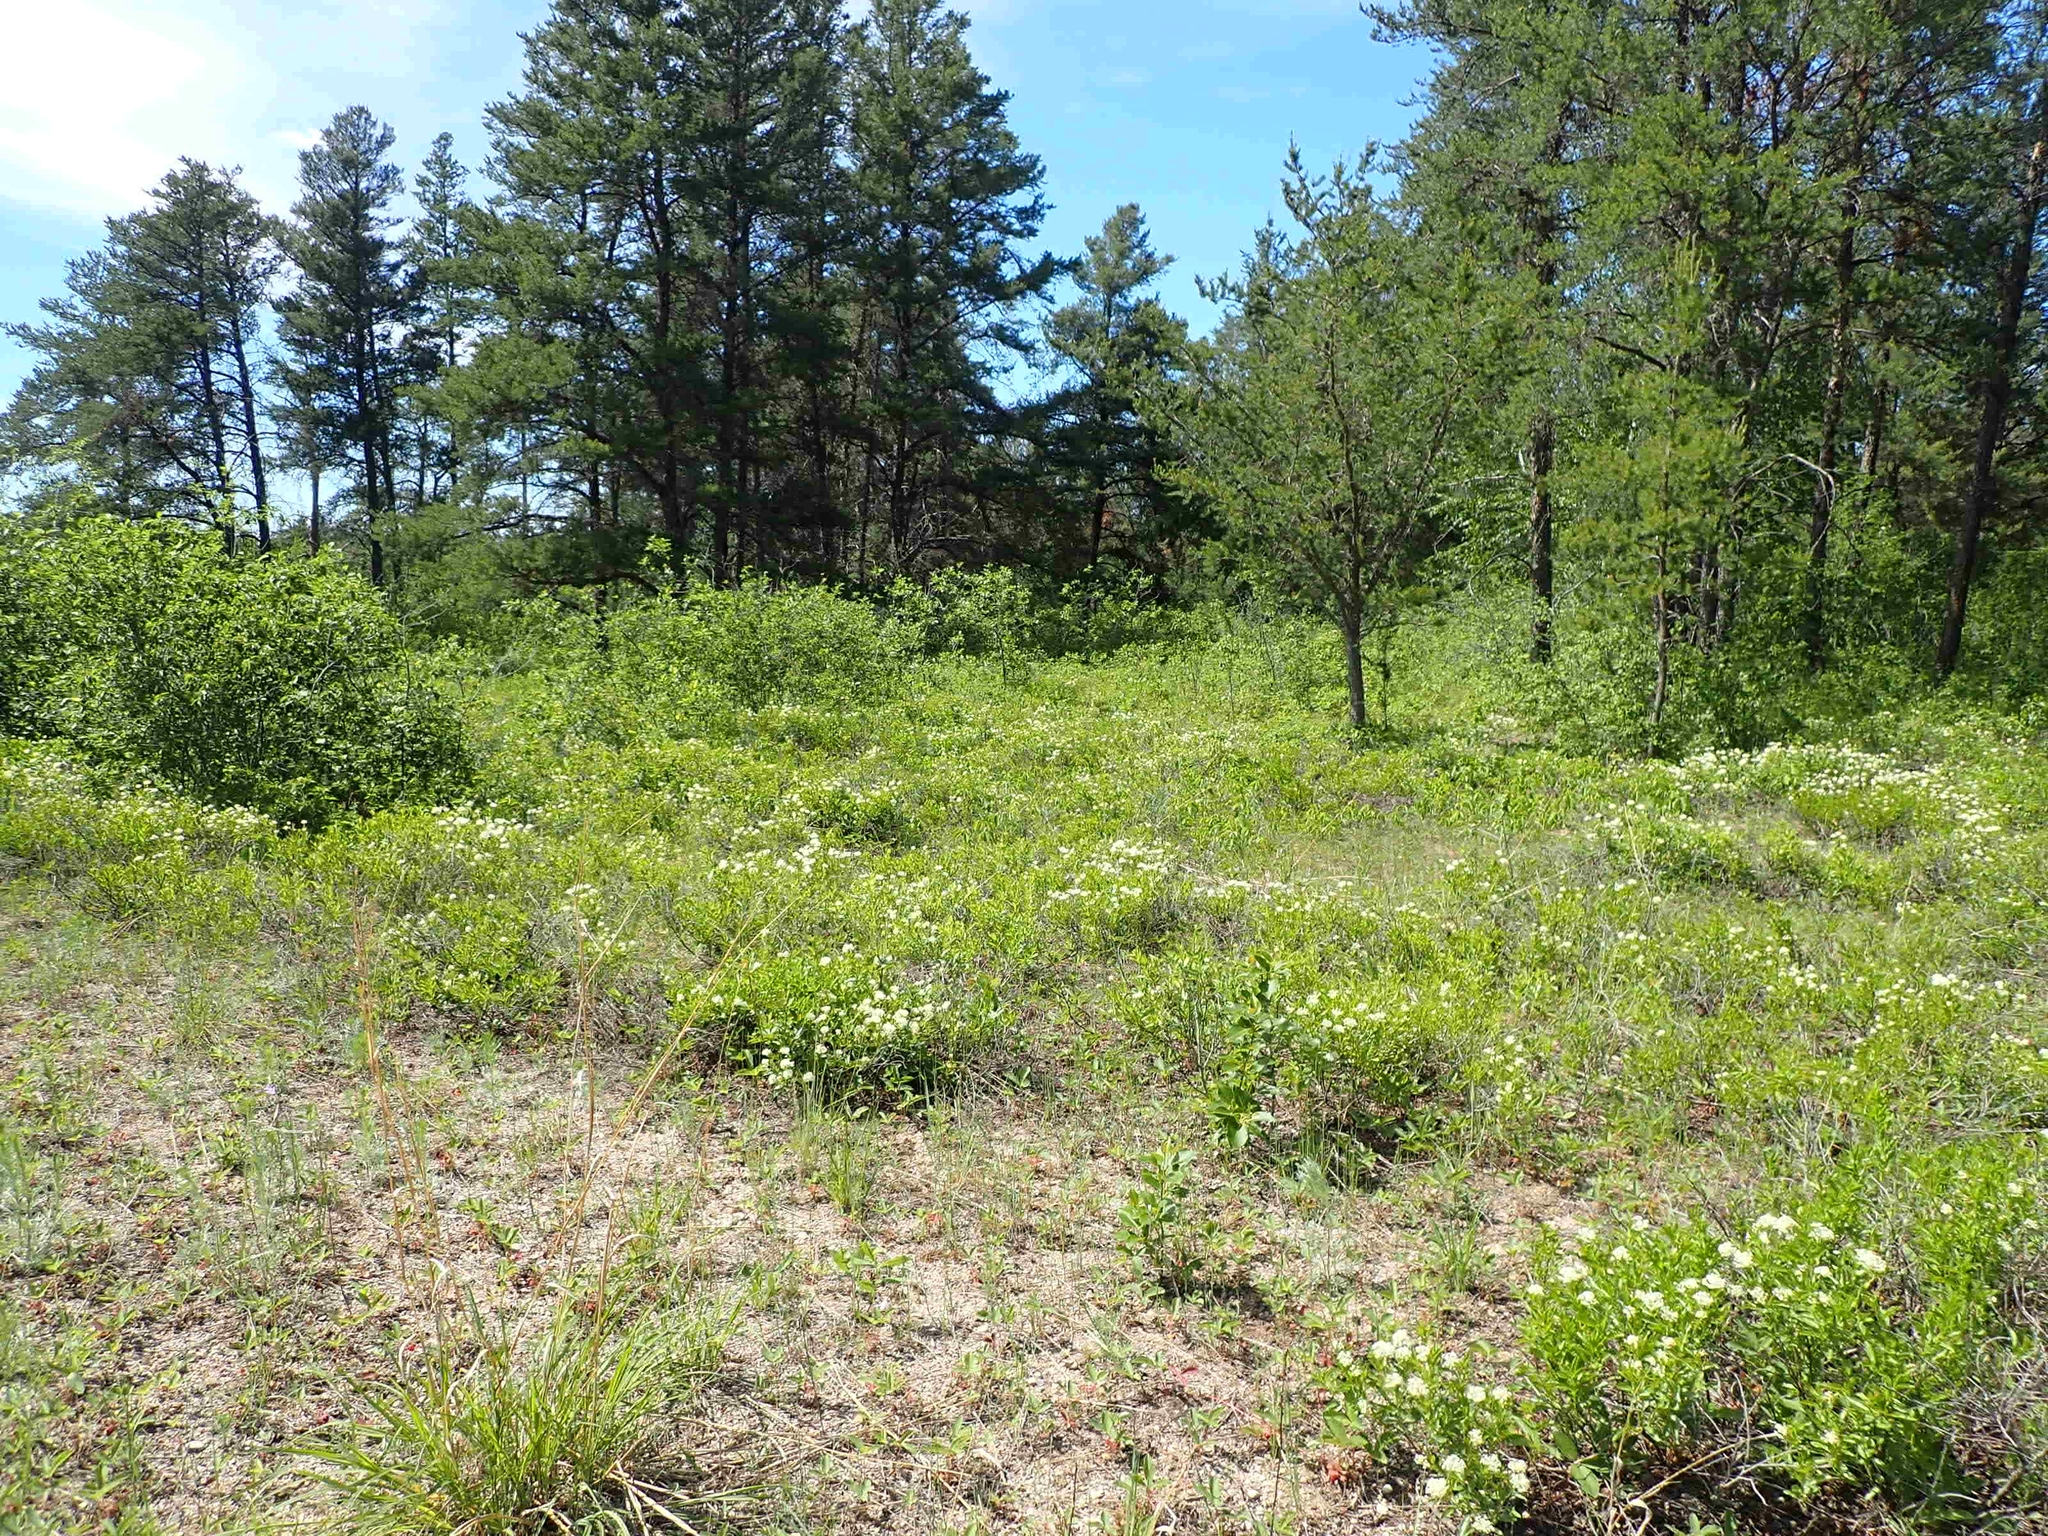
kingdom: Plantae
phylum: Tracheophyta
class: Magnoliopsida
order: Rosales
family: Rhamnaceae
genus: Ceanothus
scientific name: Ceanothus herbaceus
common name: Inland ceanothus
